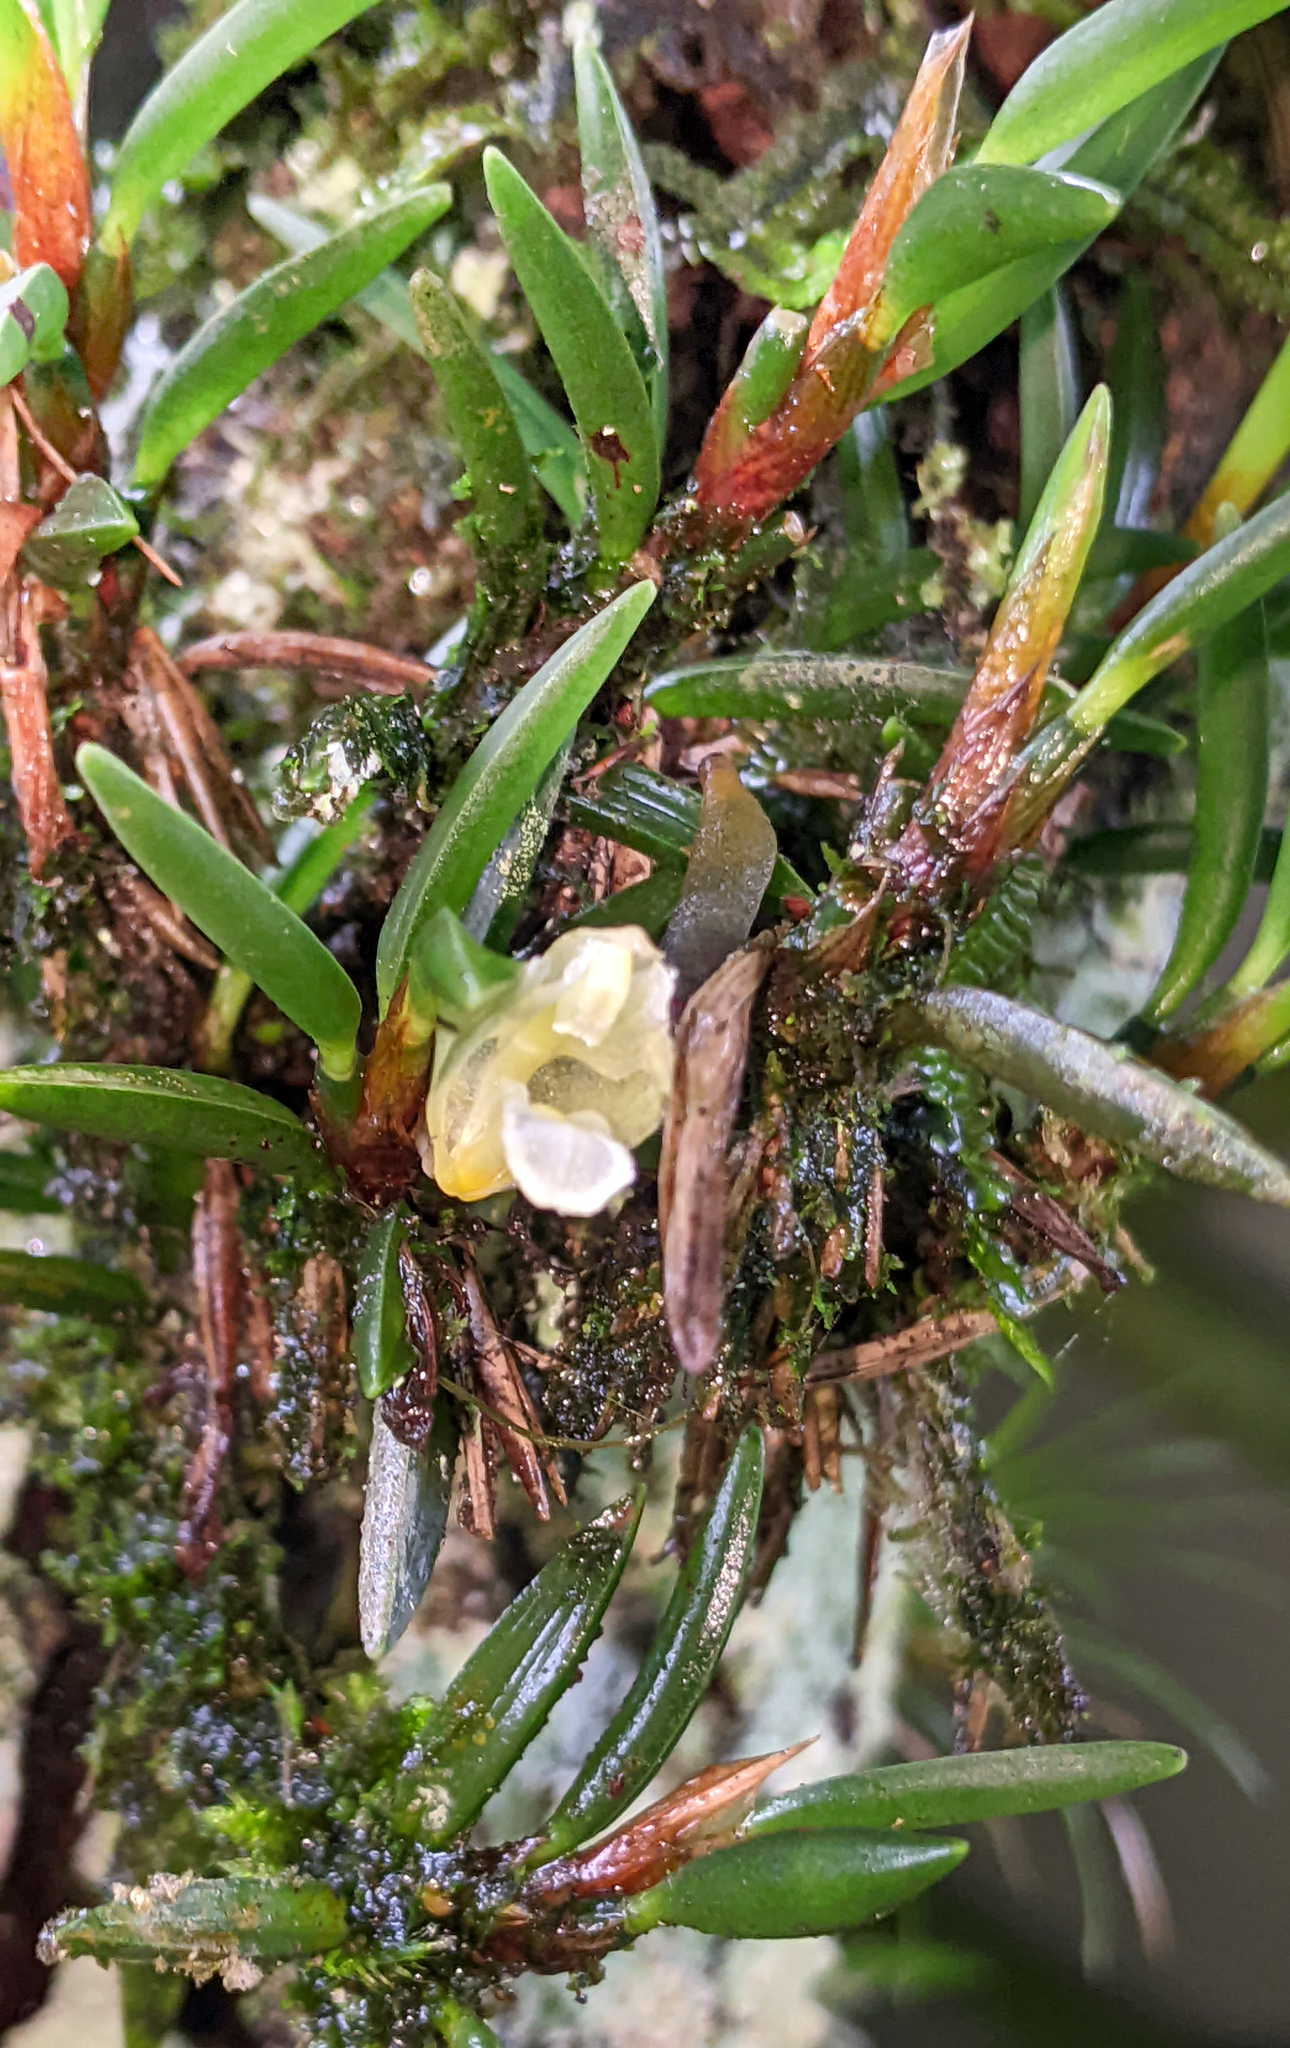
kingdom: Plantae
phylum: Tracheophyta
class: Liliopsida
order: Asparagales
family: Orchidaceae
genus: Maxillaria
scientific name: Maxillaria uncata
